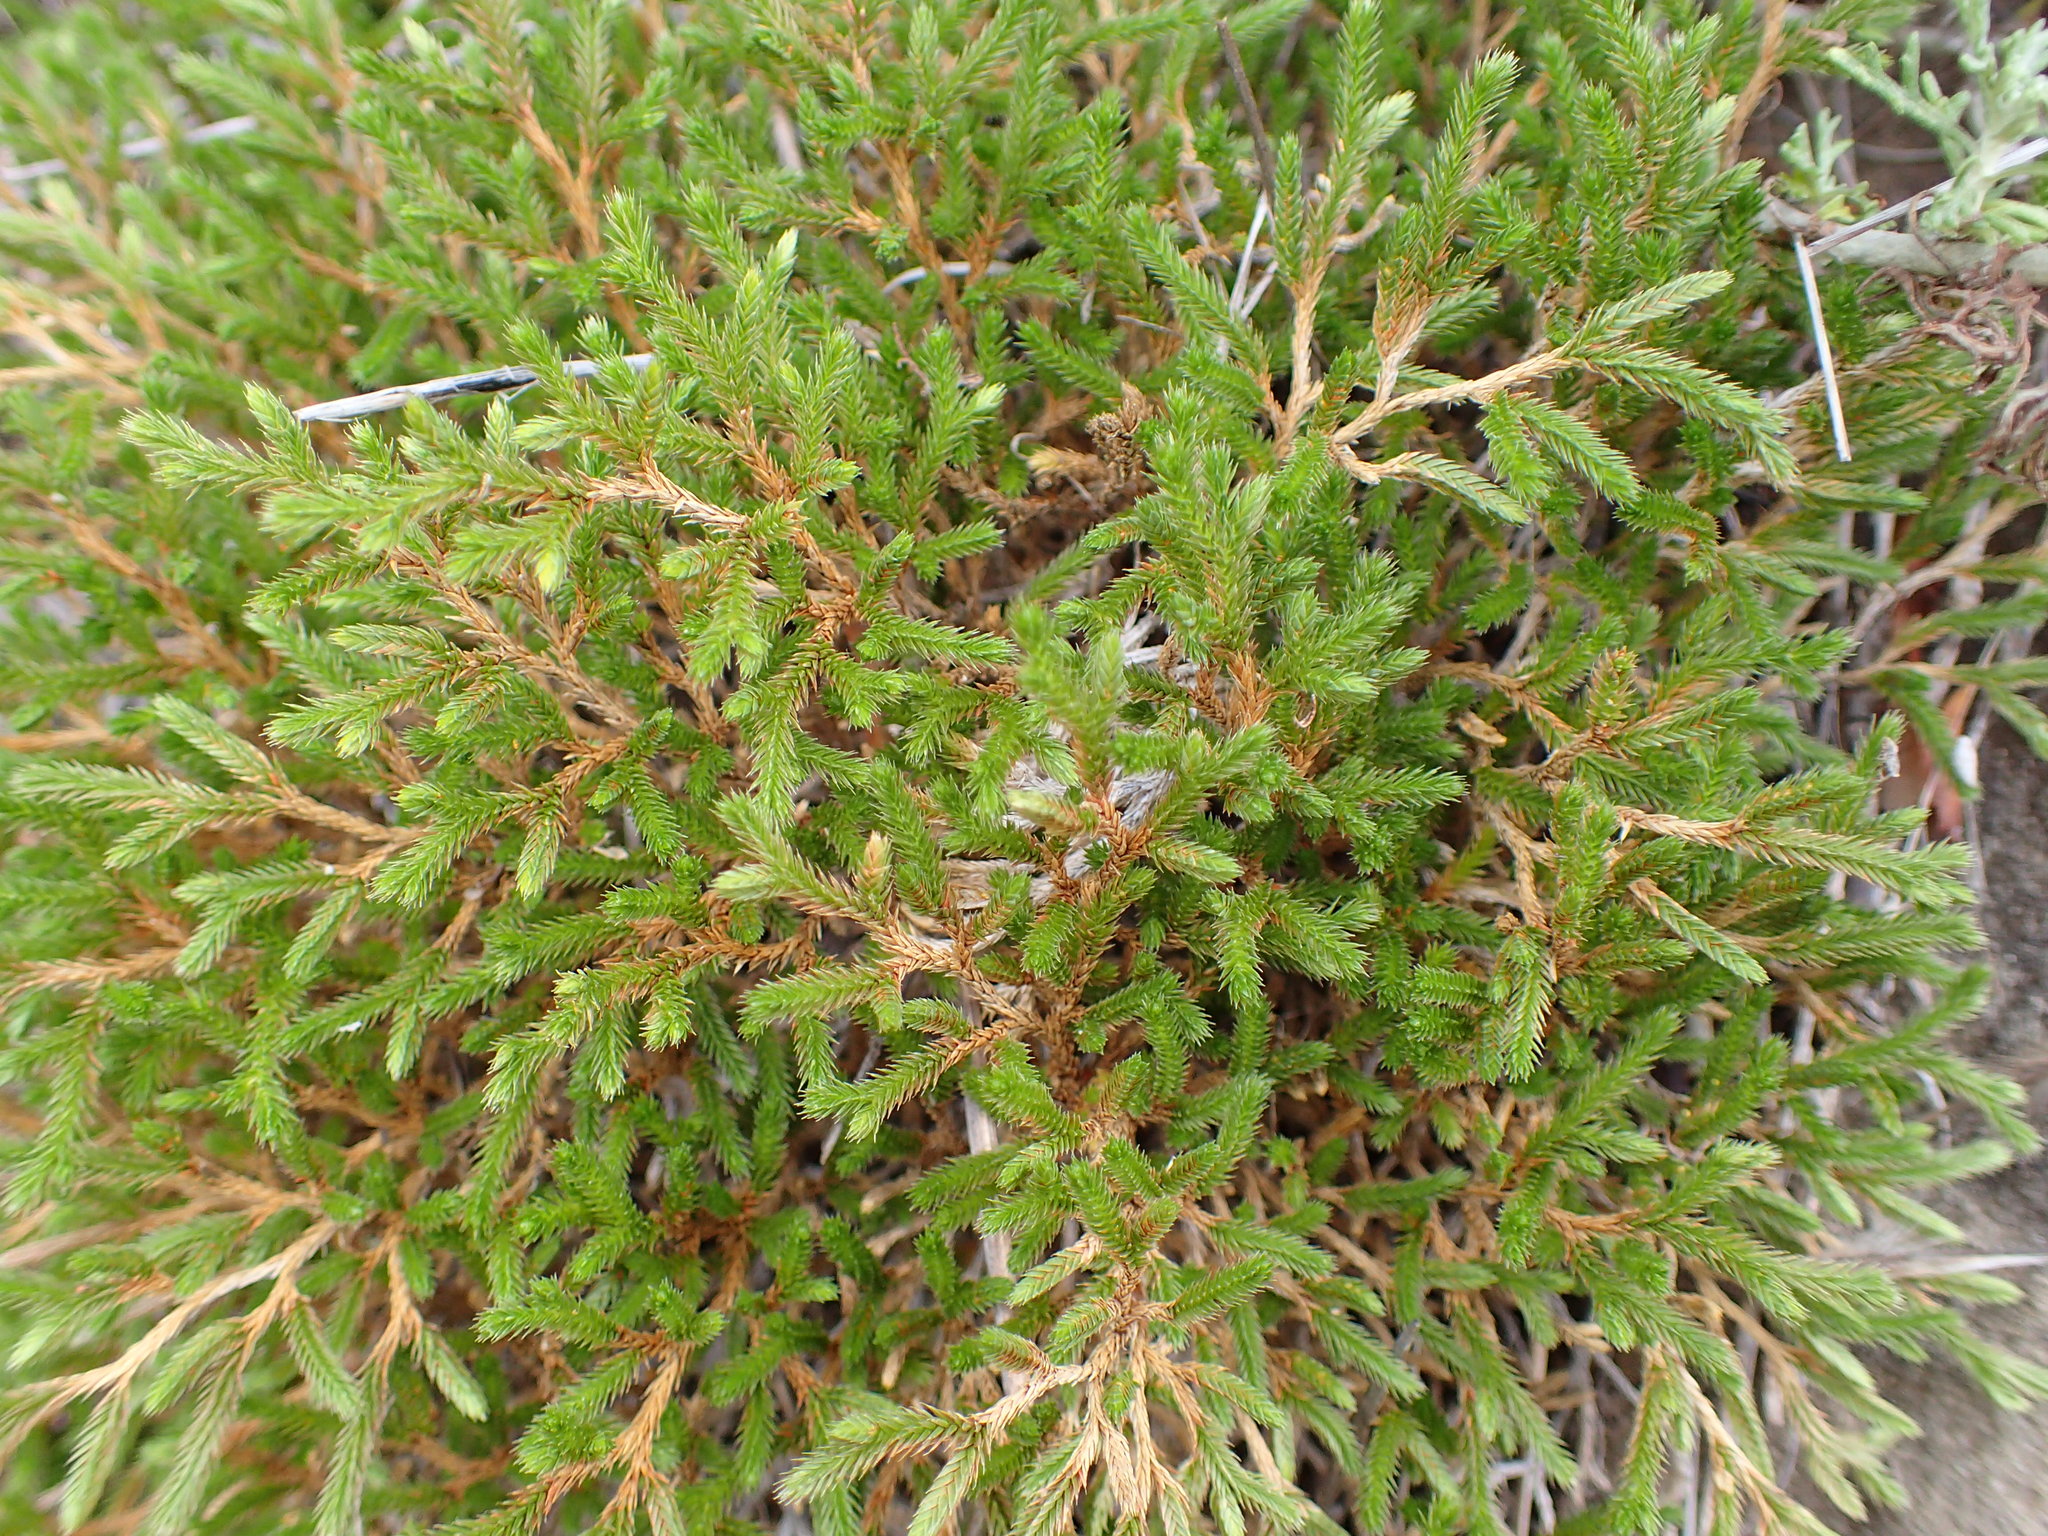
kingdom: Plantae
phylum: Tracheophyta
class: Lycopodiopsida
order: Selaginellales
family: Selaginellaceae
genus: Selaginella
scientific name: Selaginella bigelovii
